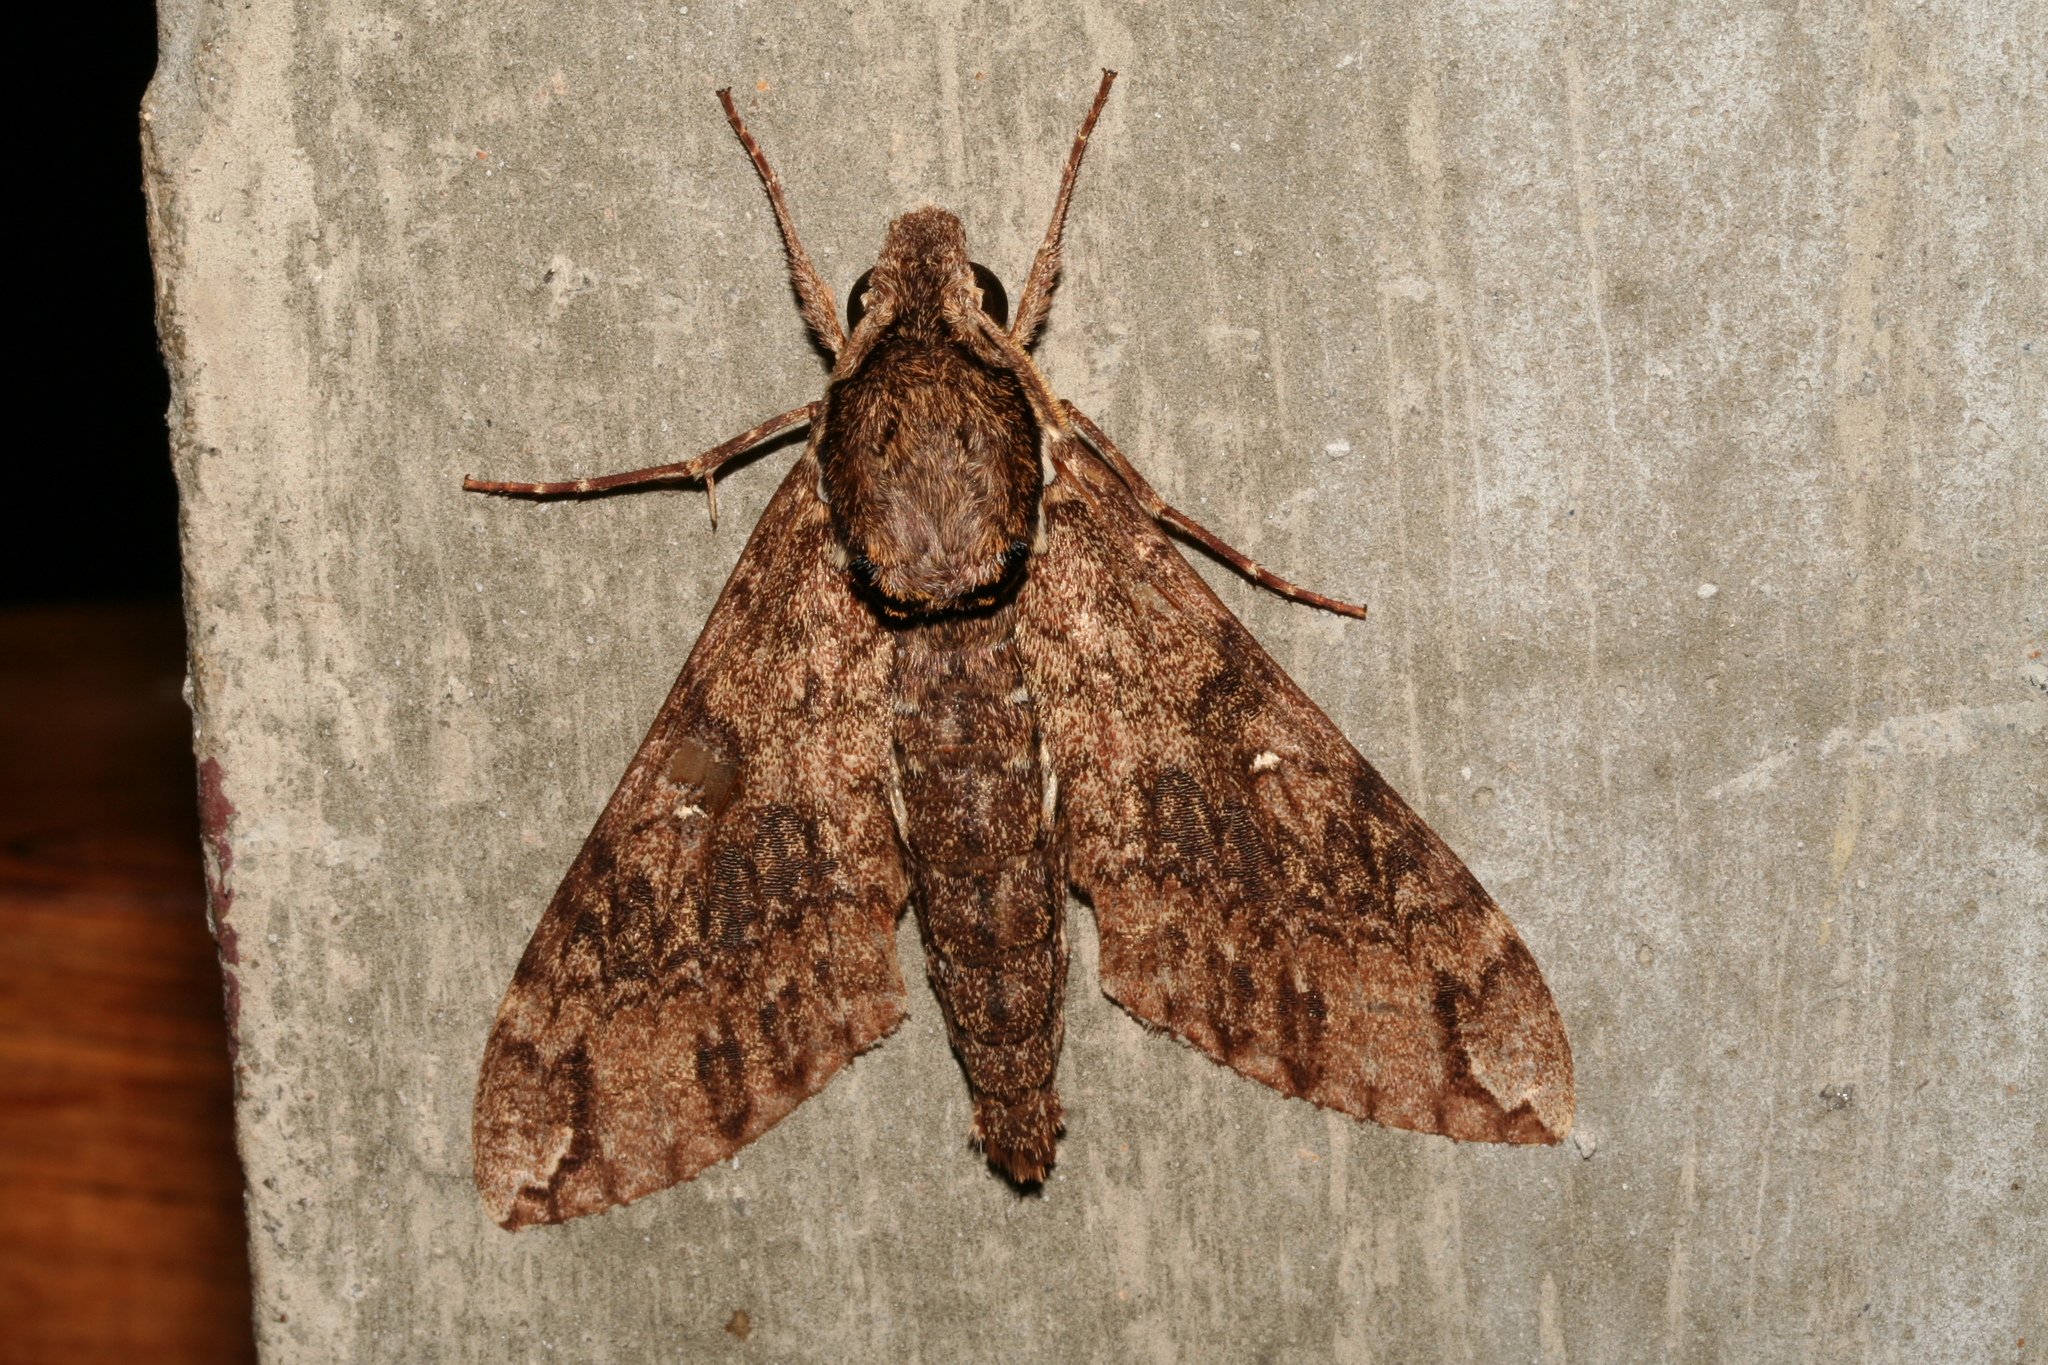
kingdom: Animalia
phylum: Arthropoda
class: Insecta
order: Lepidoptera
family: Sphingidae
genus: Panogena
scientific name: Panogena lingens
